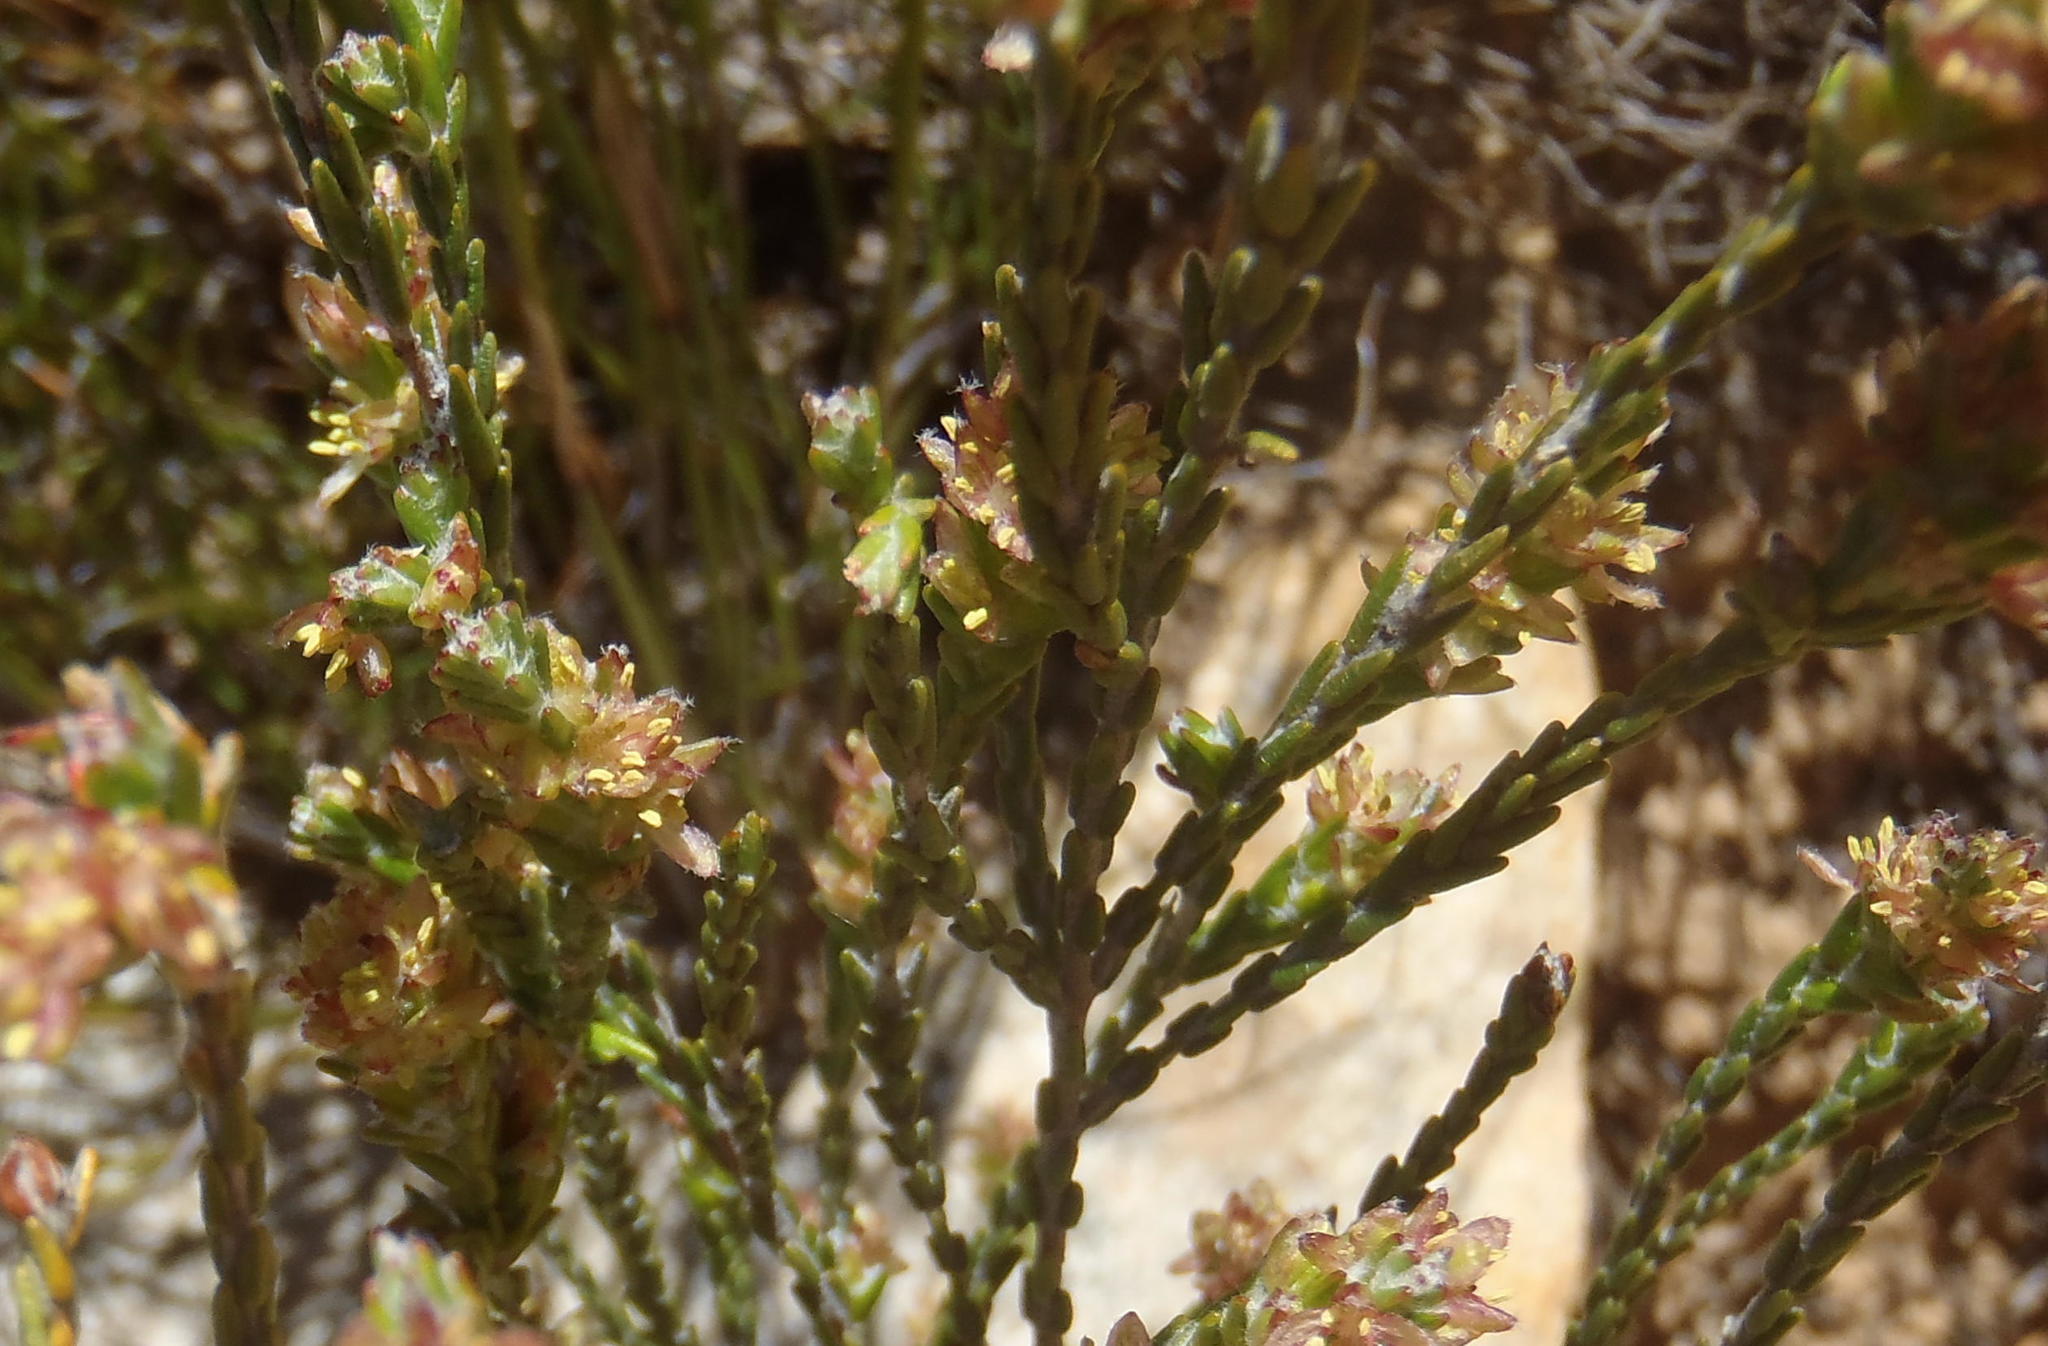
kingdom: Plantae
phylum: Tracheophyta
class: Magnoliopsida
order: Malvales
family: Thymelaeaceae
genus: Passerina
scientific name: Passerina comosa
